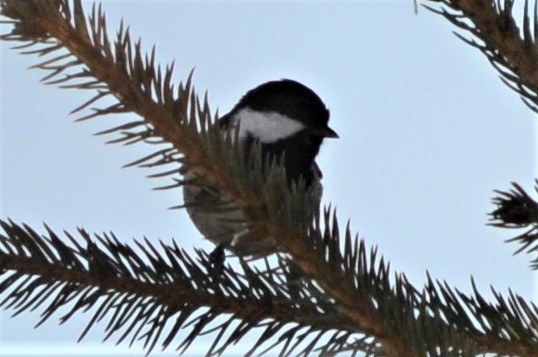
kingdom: Animalia
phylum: Chordata
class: Aves
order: Passeriformes
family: Paridae
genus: Periparus
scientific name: Periparus ater
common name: Coal tit
